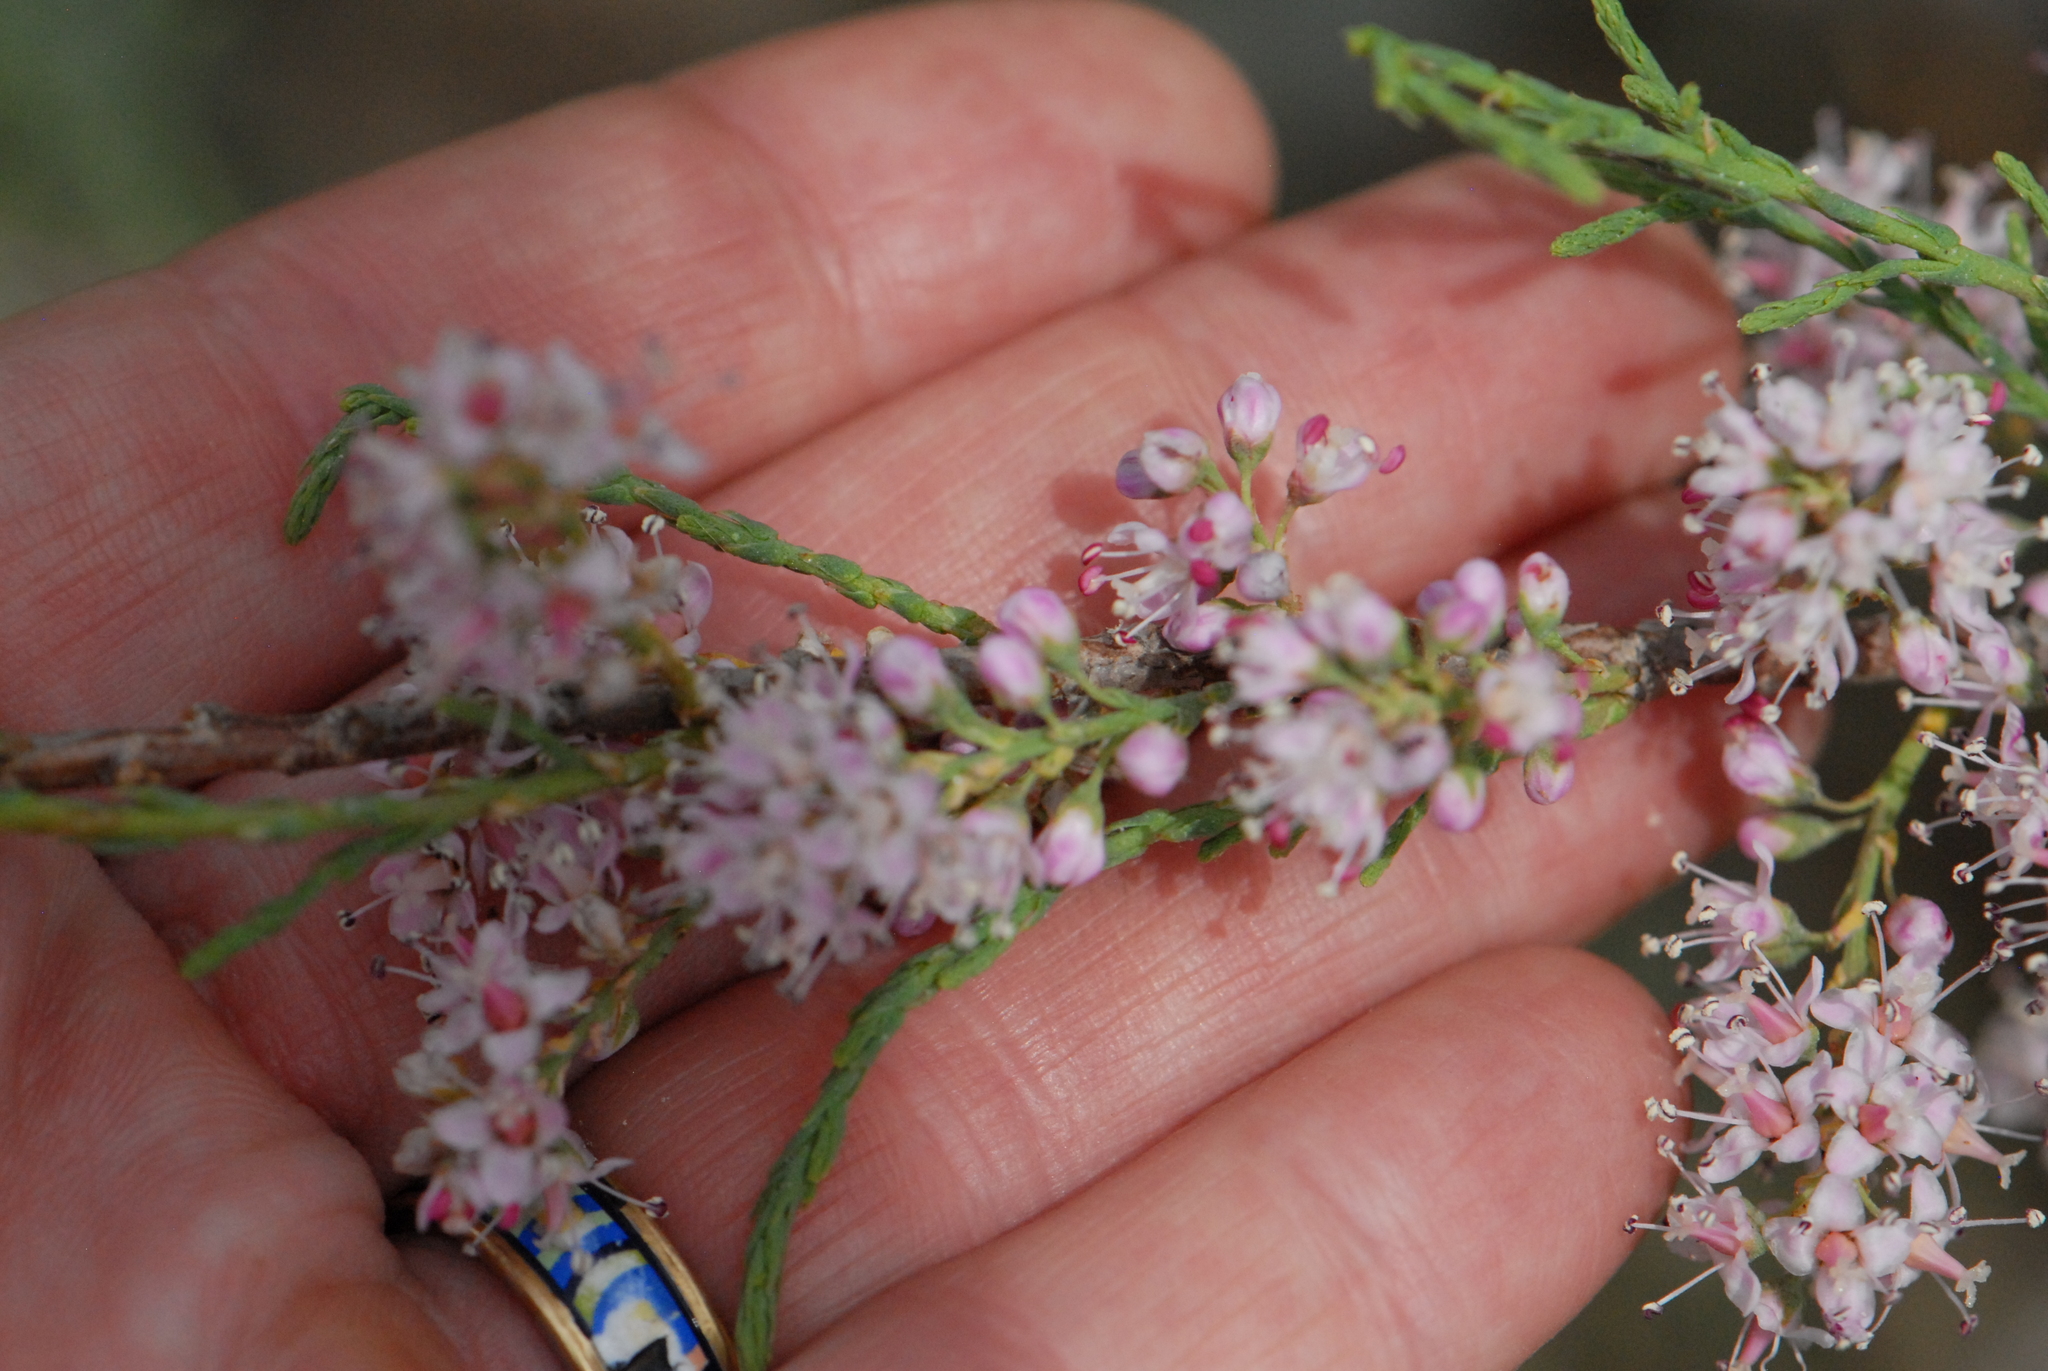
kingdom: Plantae
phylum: Tracheophyta
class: Magnoliopsida
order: Caryophyllales
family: Tamaricaceae
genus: Tamarix
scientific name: Tamarix ramosissima
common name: Pink tamarisk
